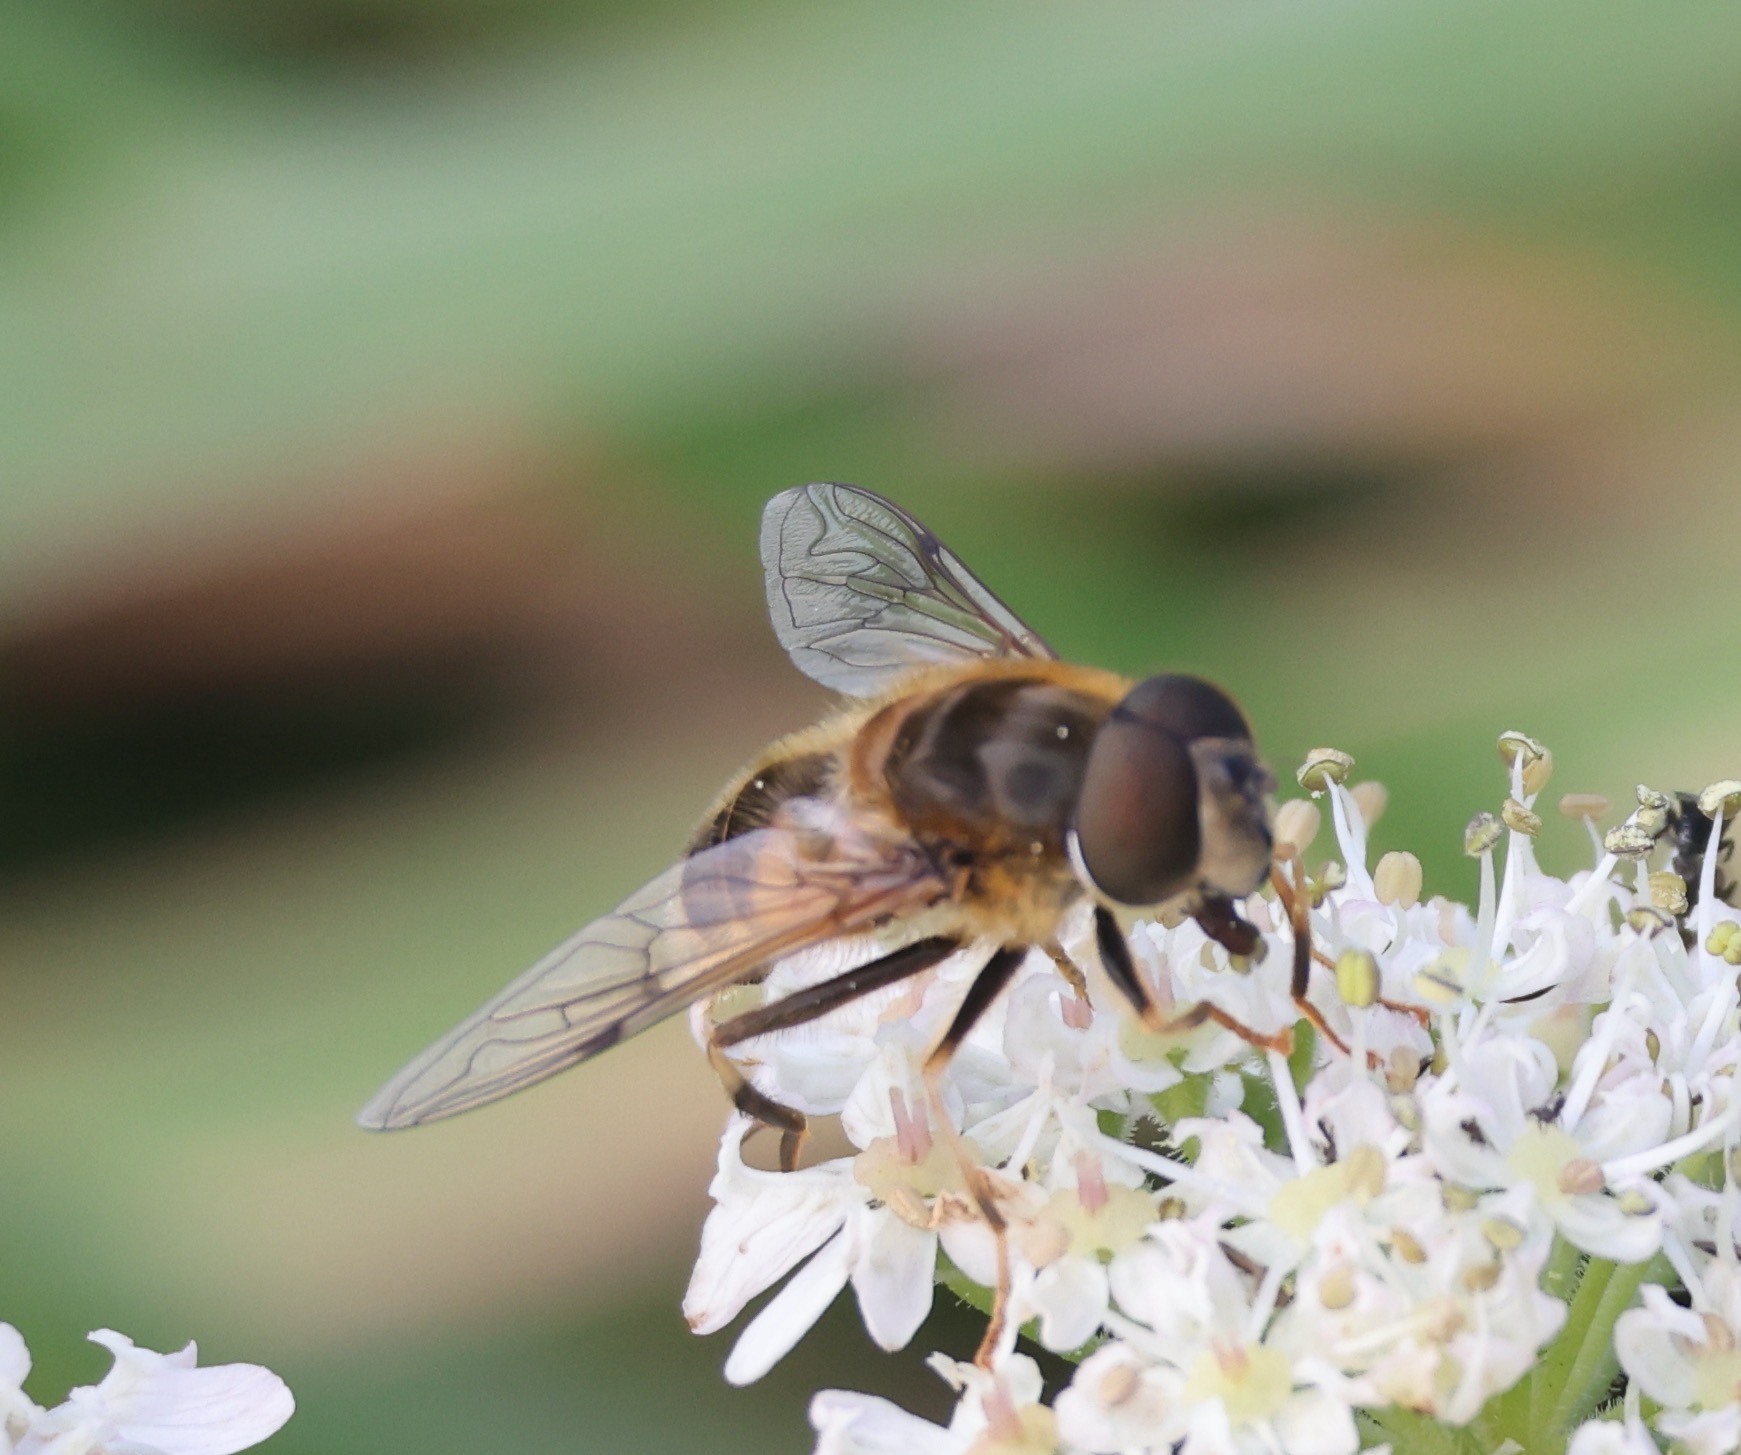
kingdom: Animalia
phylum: Arthropoda
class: Insecta
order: Diptera
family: Syrphidae
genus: Eristalis
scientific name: Eristalis pertinax
